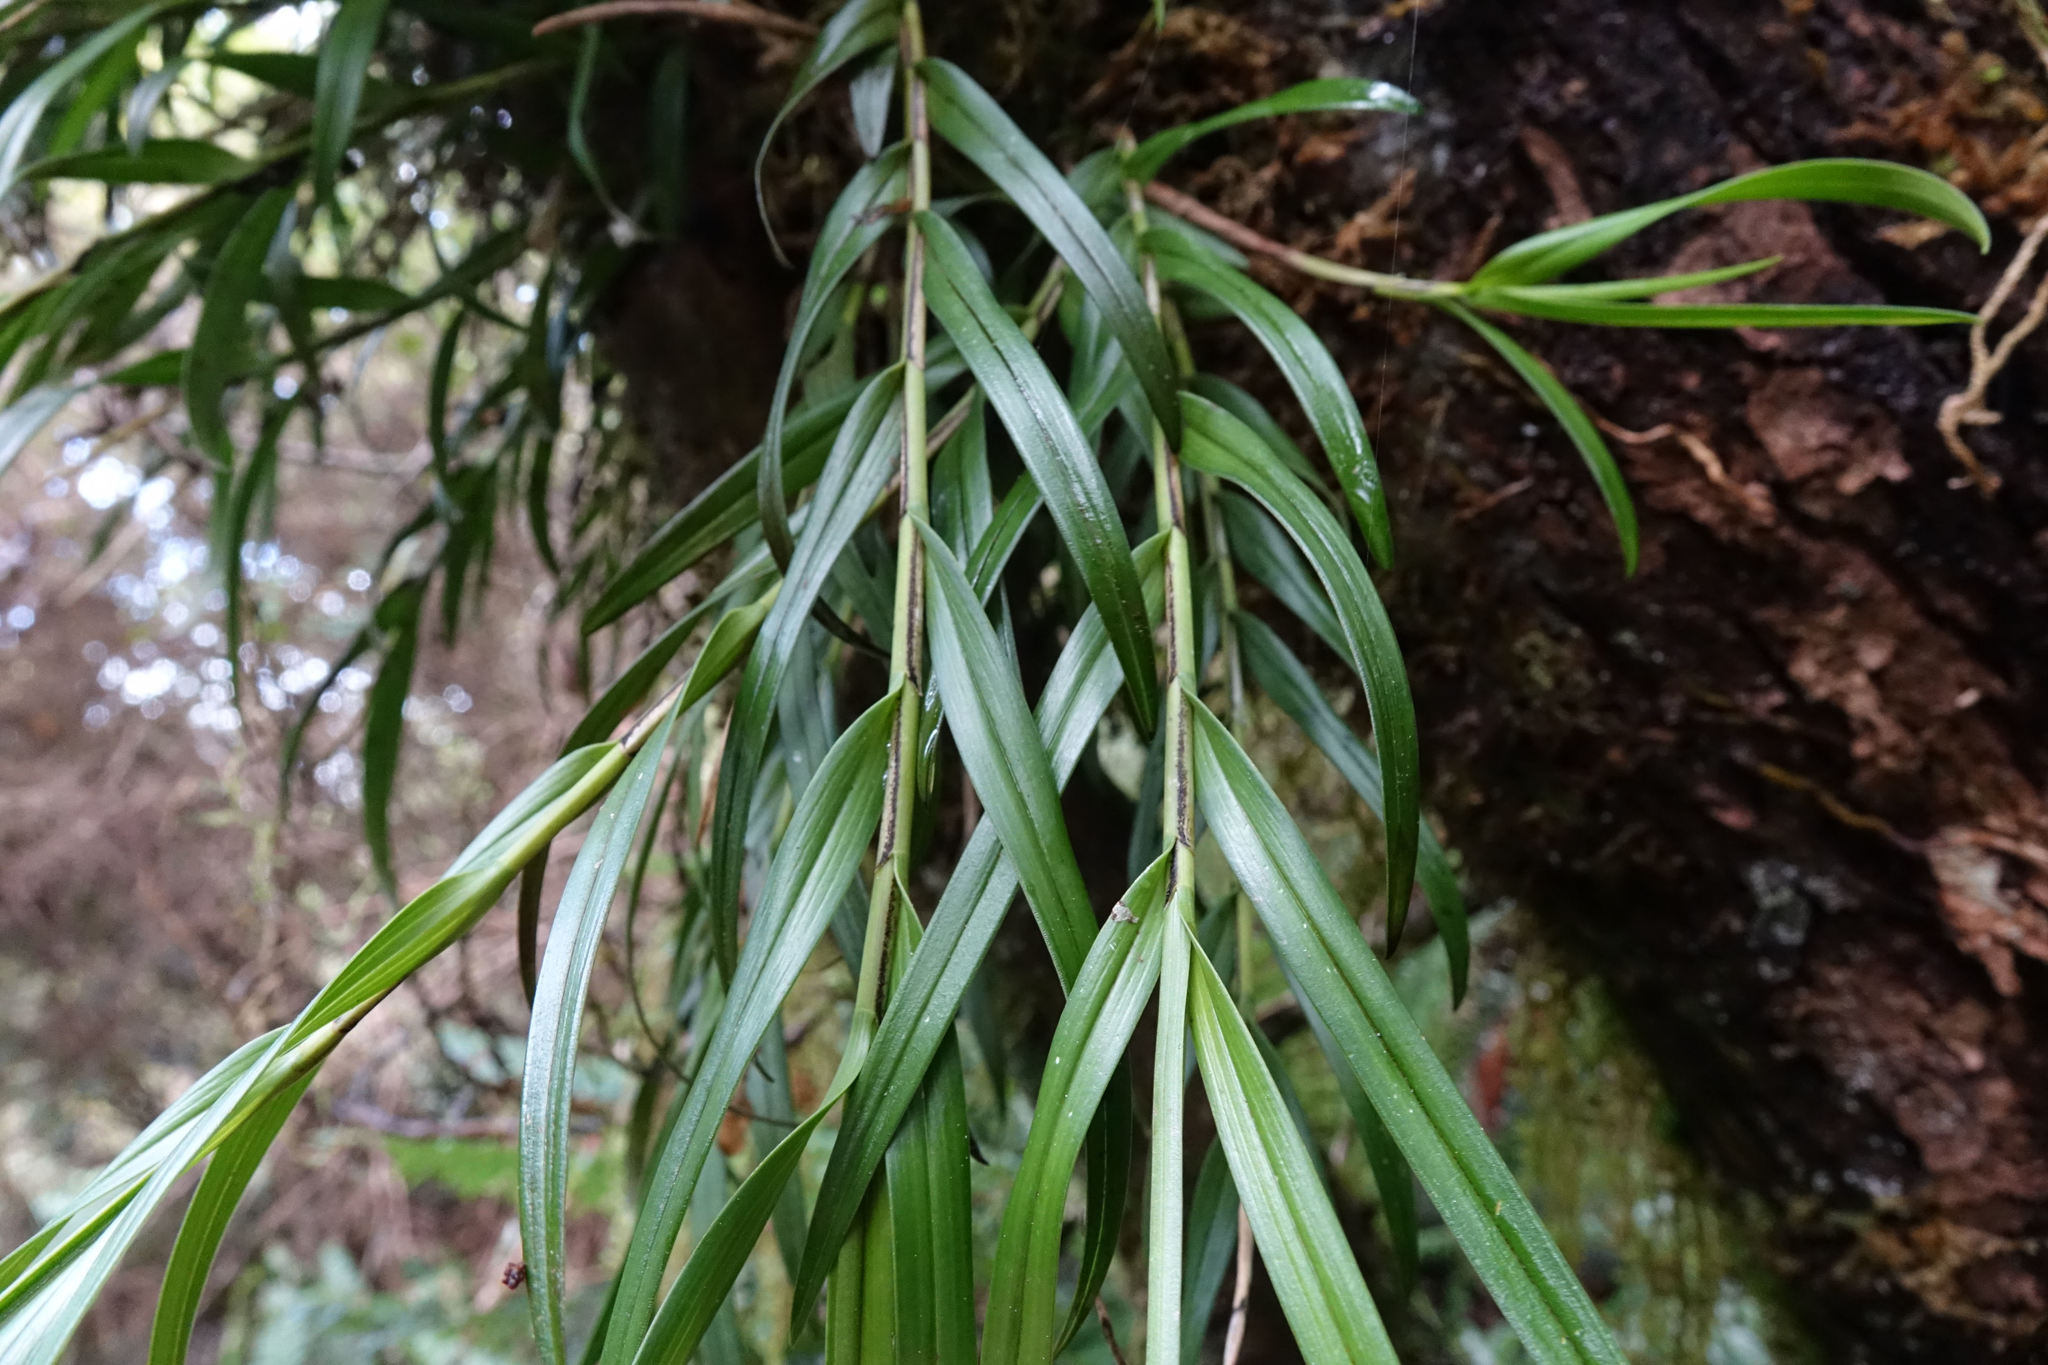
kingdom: Plantae
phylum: Tracheophyta
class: Liliopsida
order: Asparagales
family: Orchidaceae
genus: Earina
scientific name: Earina autumnalis
